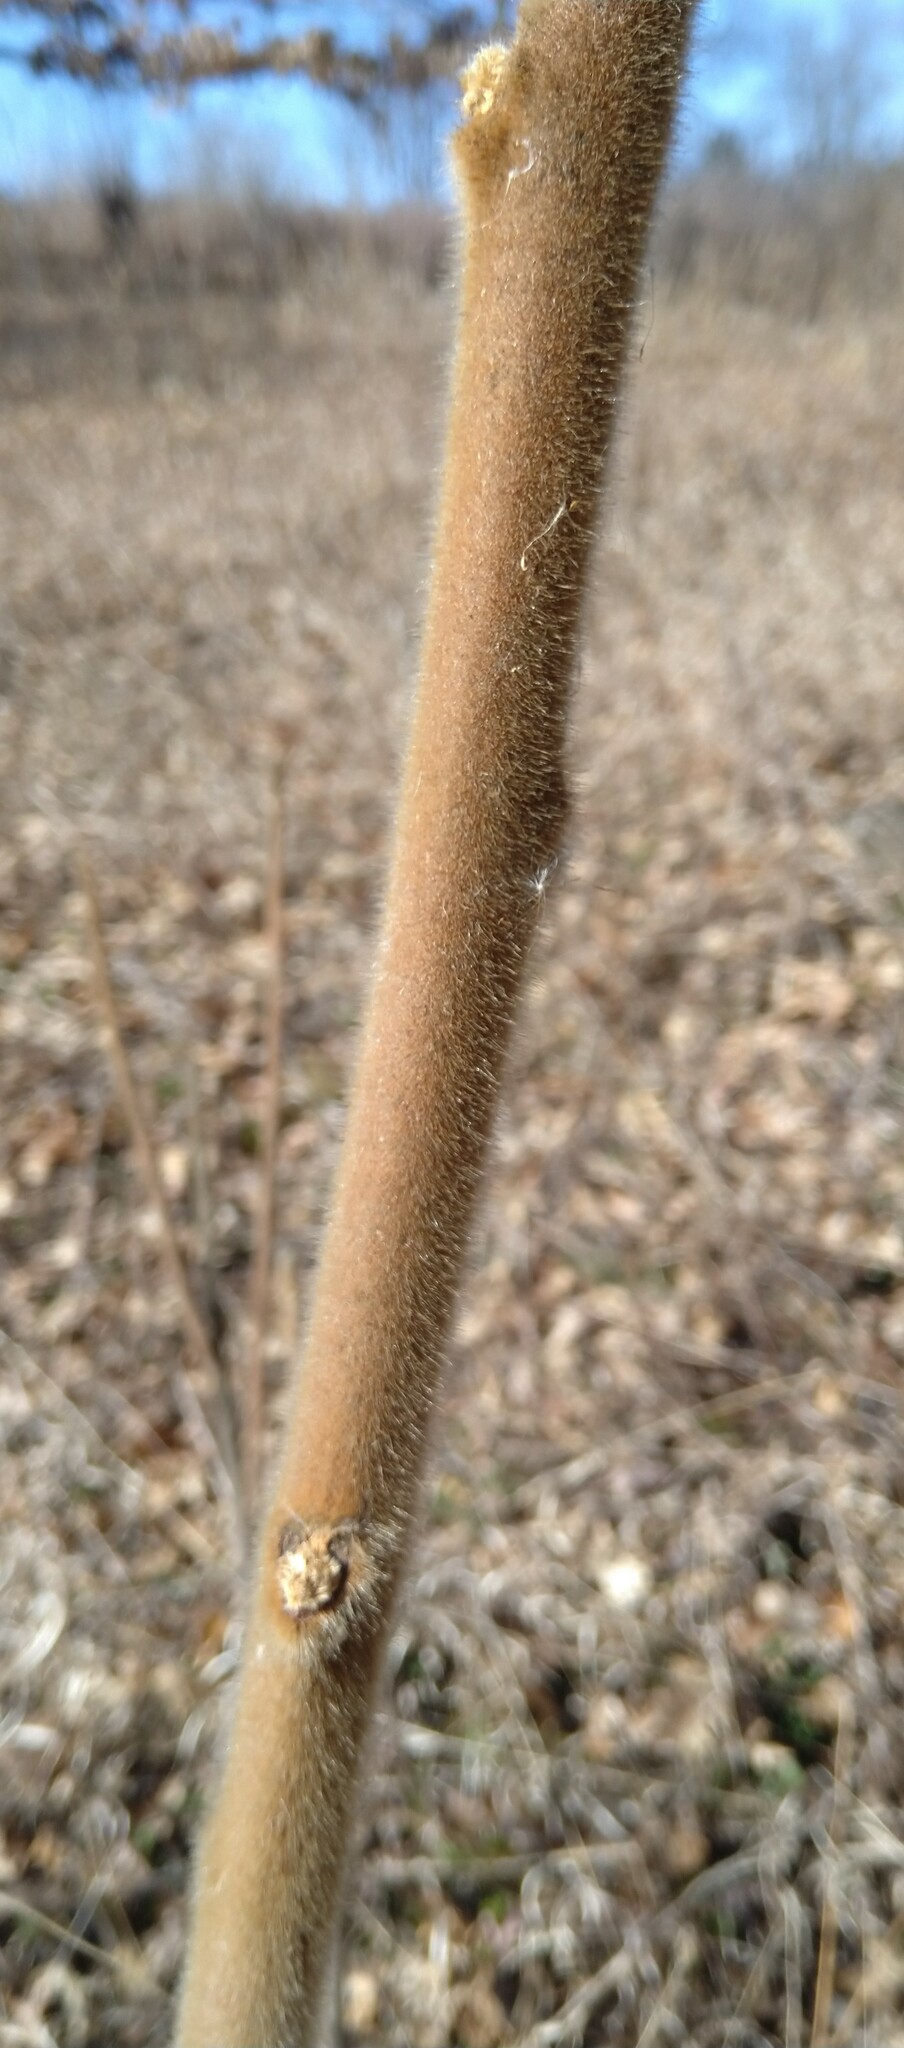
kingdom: Plantae
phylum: Tracheophyta
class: Magnoliopsida
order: Sapindales
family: Anacardiaceae
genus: Rhus
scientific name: Rhus typhina
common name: Staghorn sumac
